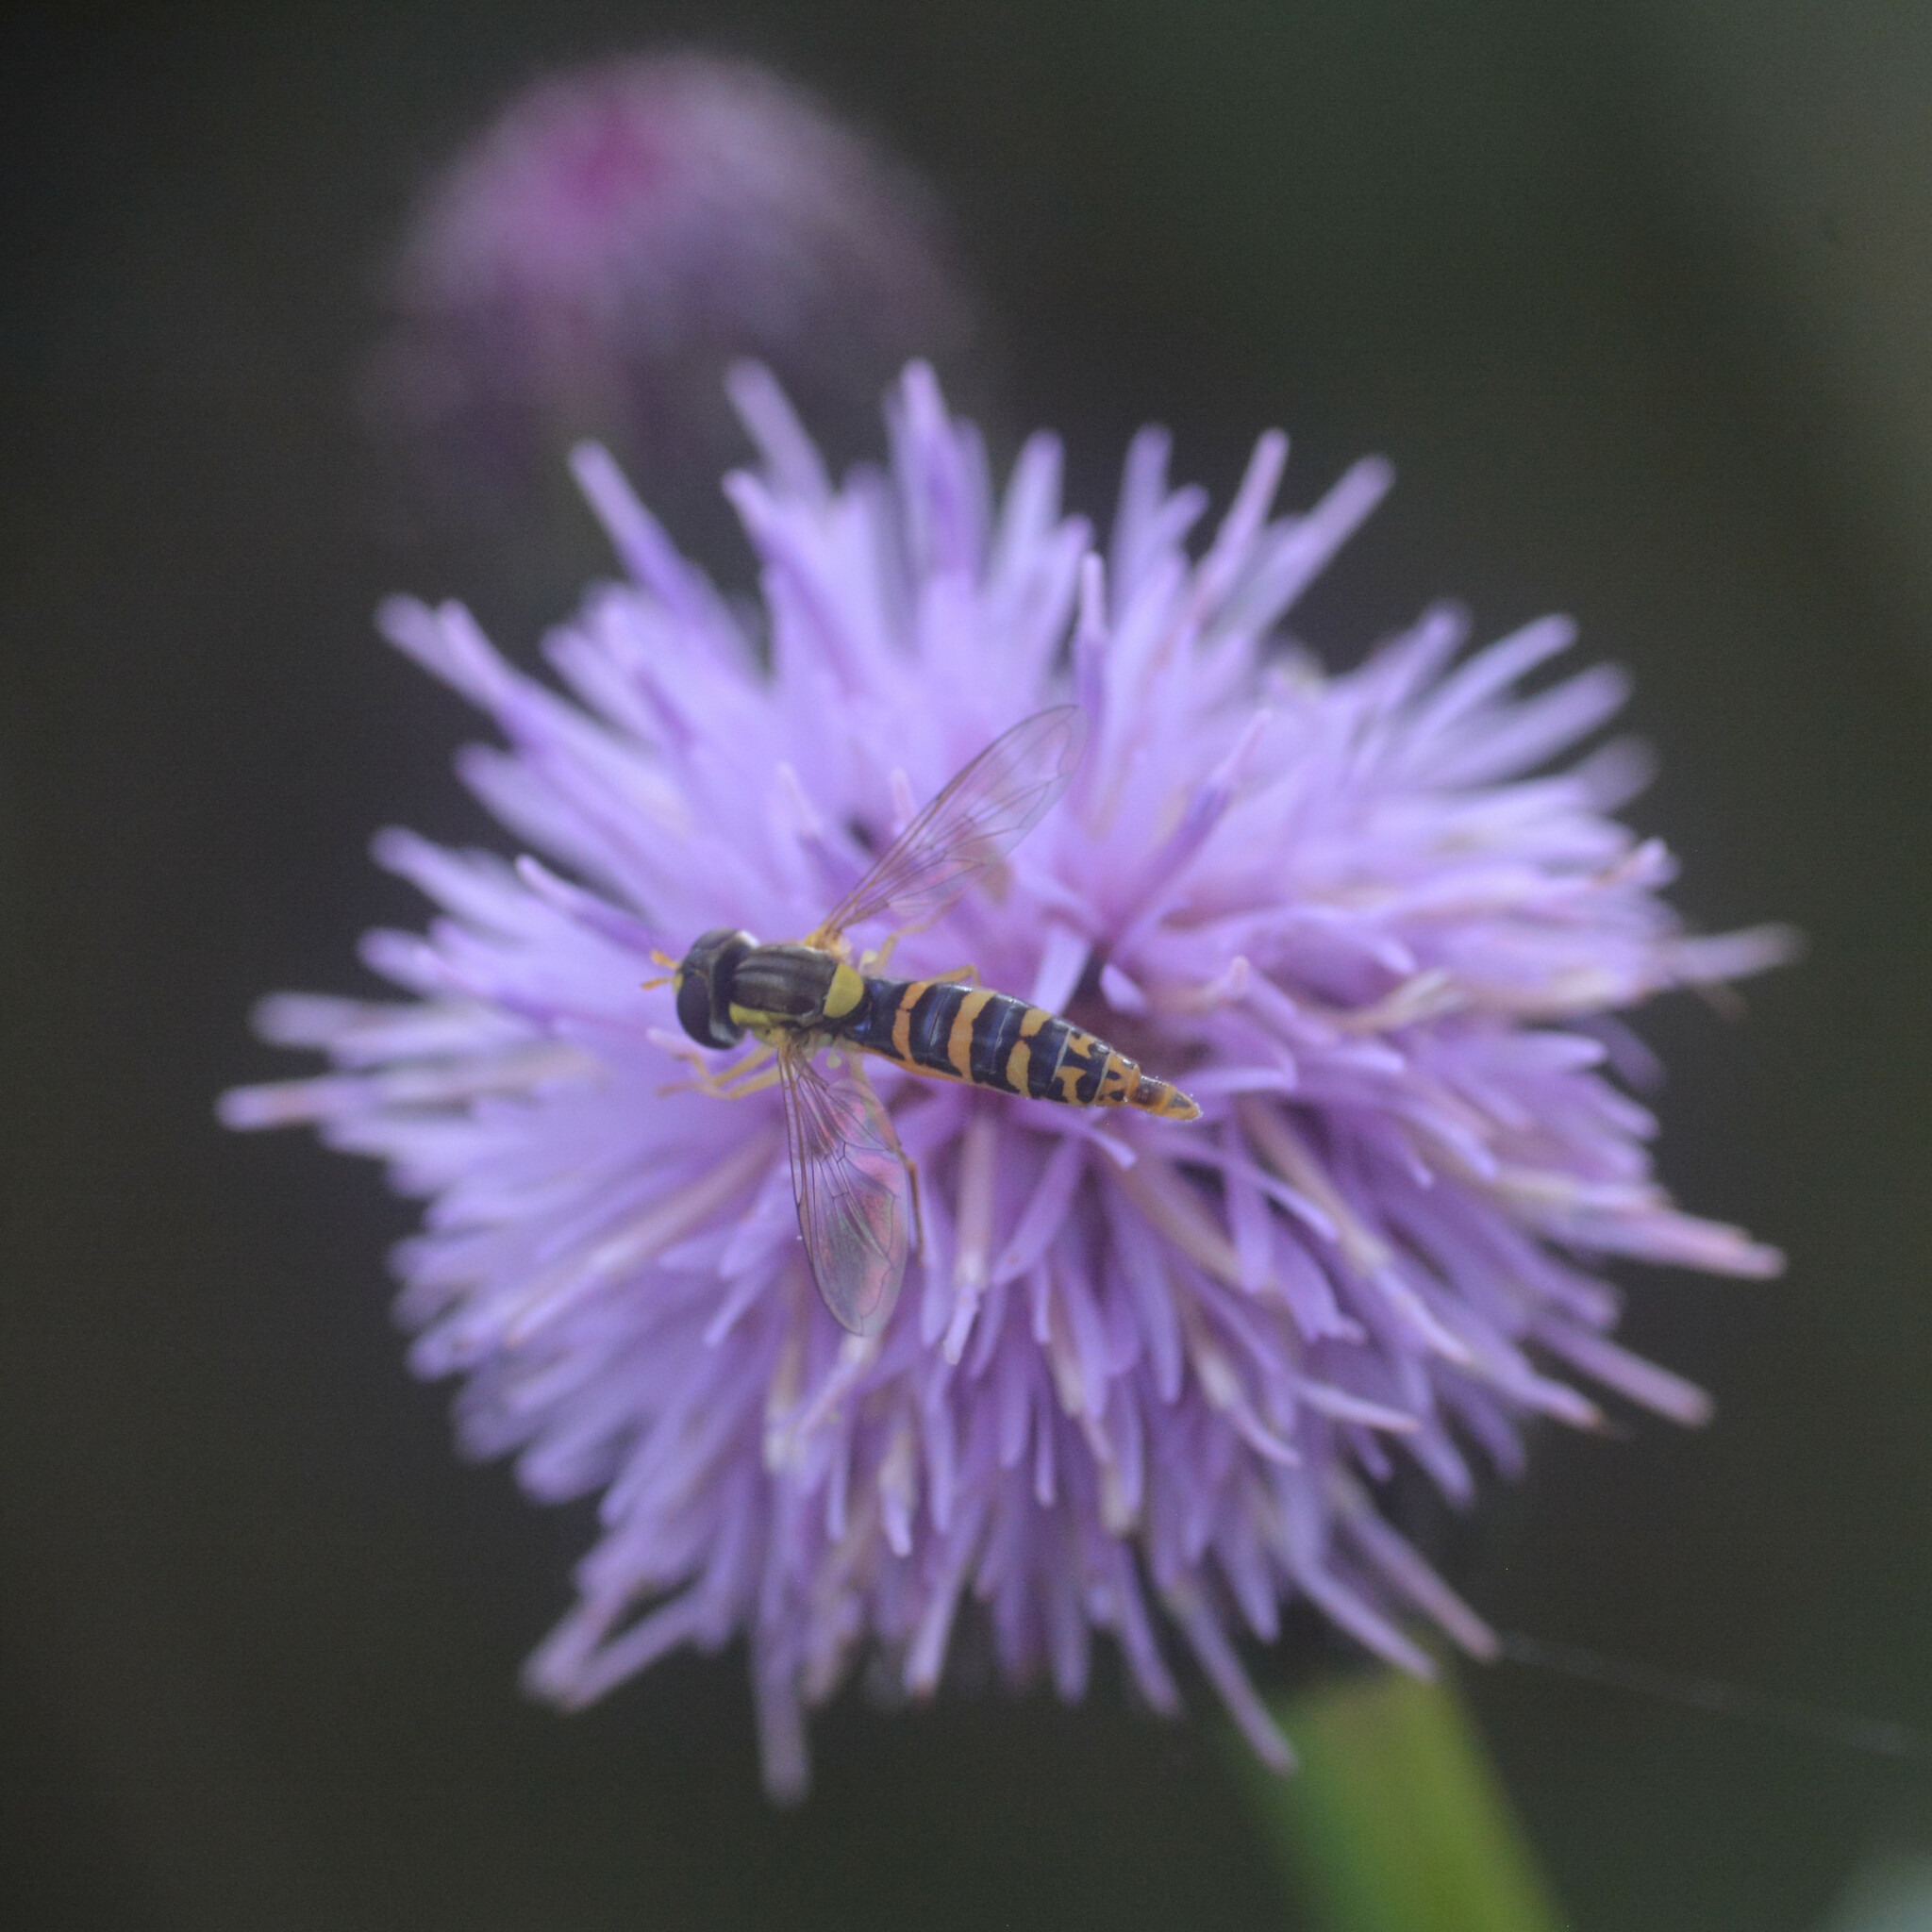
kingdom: Animalia
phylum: Arthropoda
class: Insecta
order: Diptera
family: Syrphidae
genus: Sphaerophoria
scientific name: Sphaerophoria
